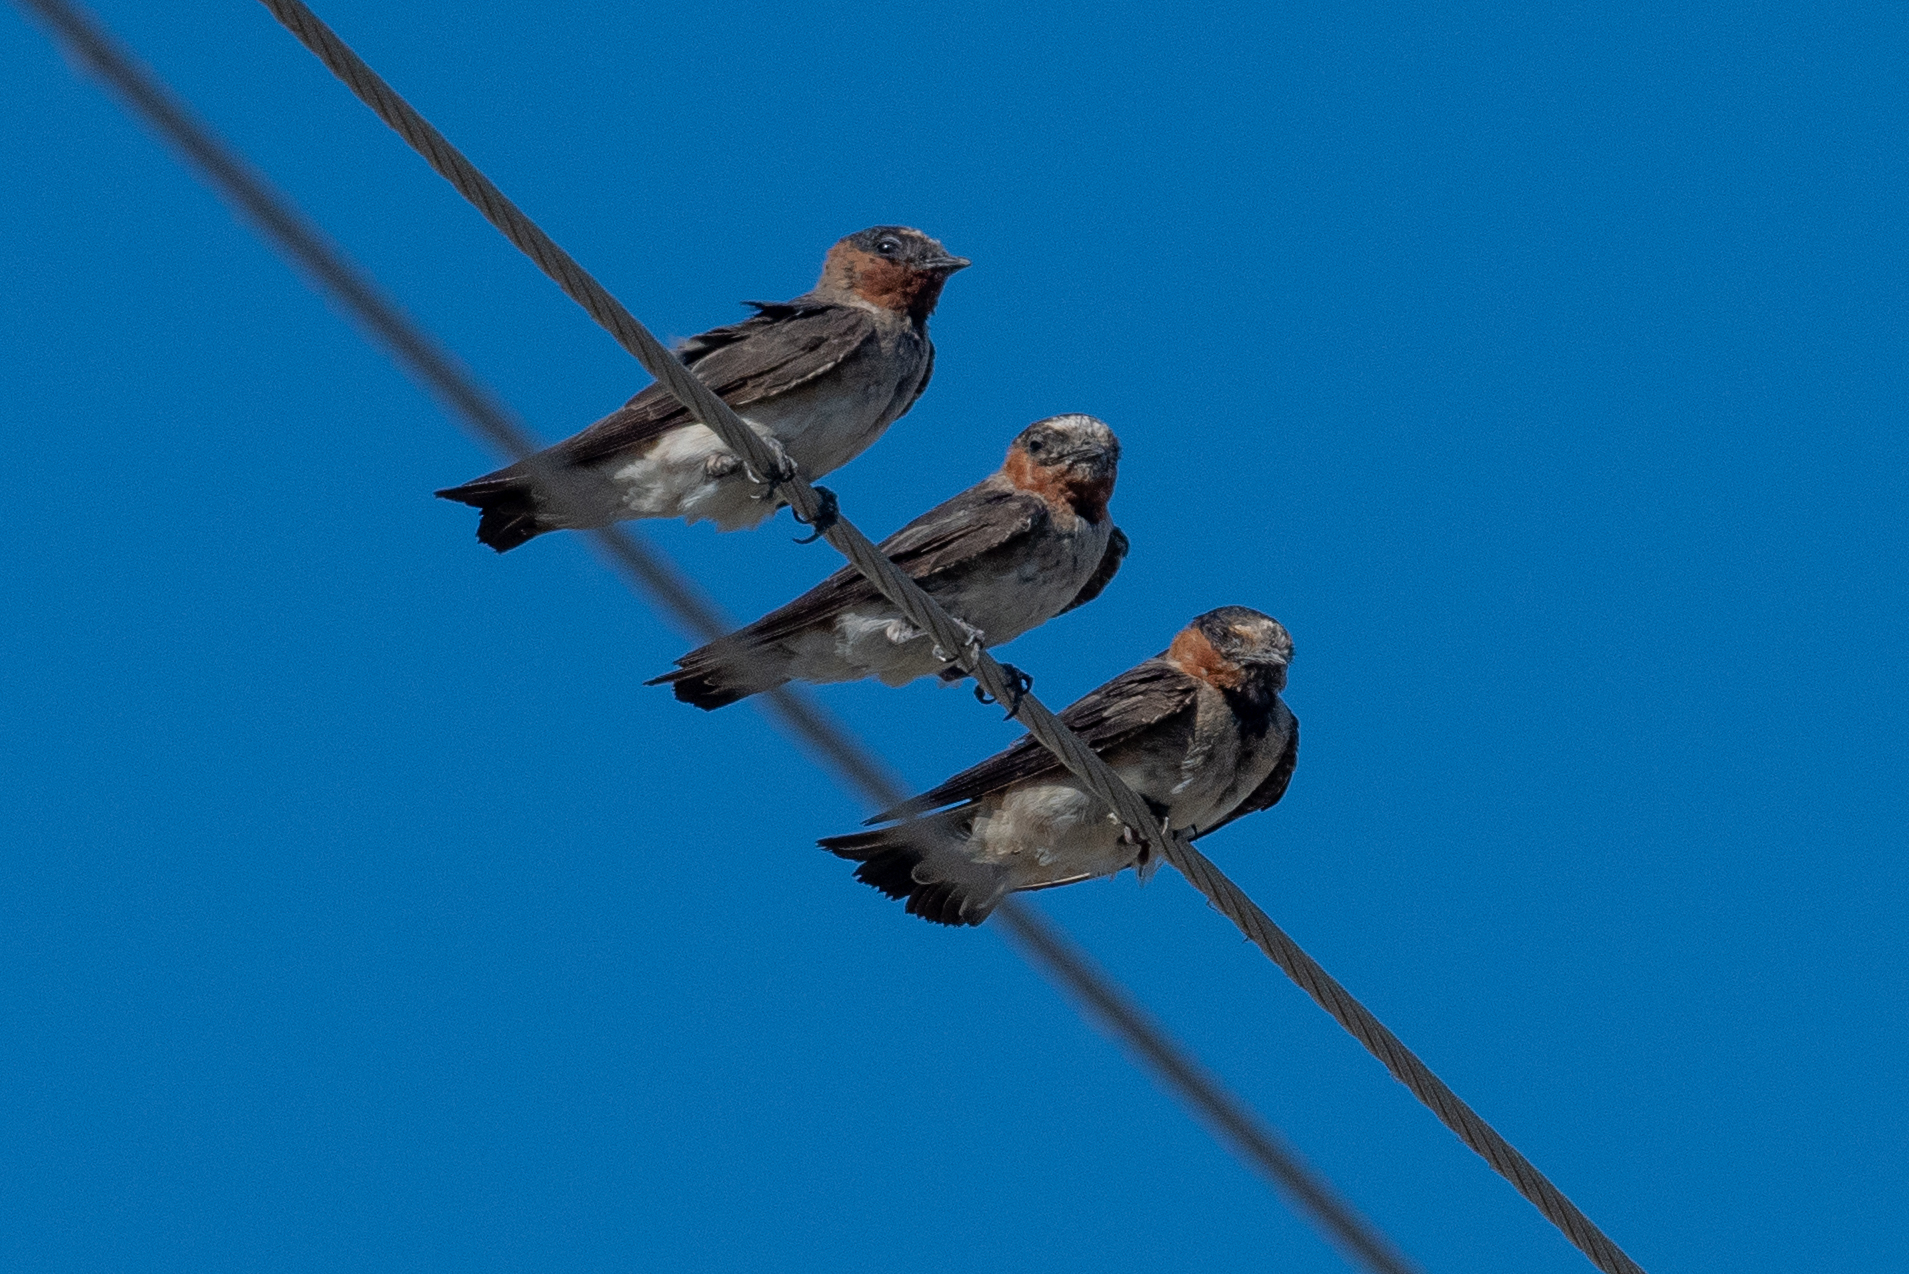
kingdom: Animalia
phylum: Chordata
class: Aves
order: Passeriformes
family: Hirundinidae
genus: Petrochelidon
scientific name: Petrochelidon pyrrhonota
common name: American cliff swallow
